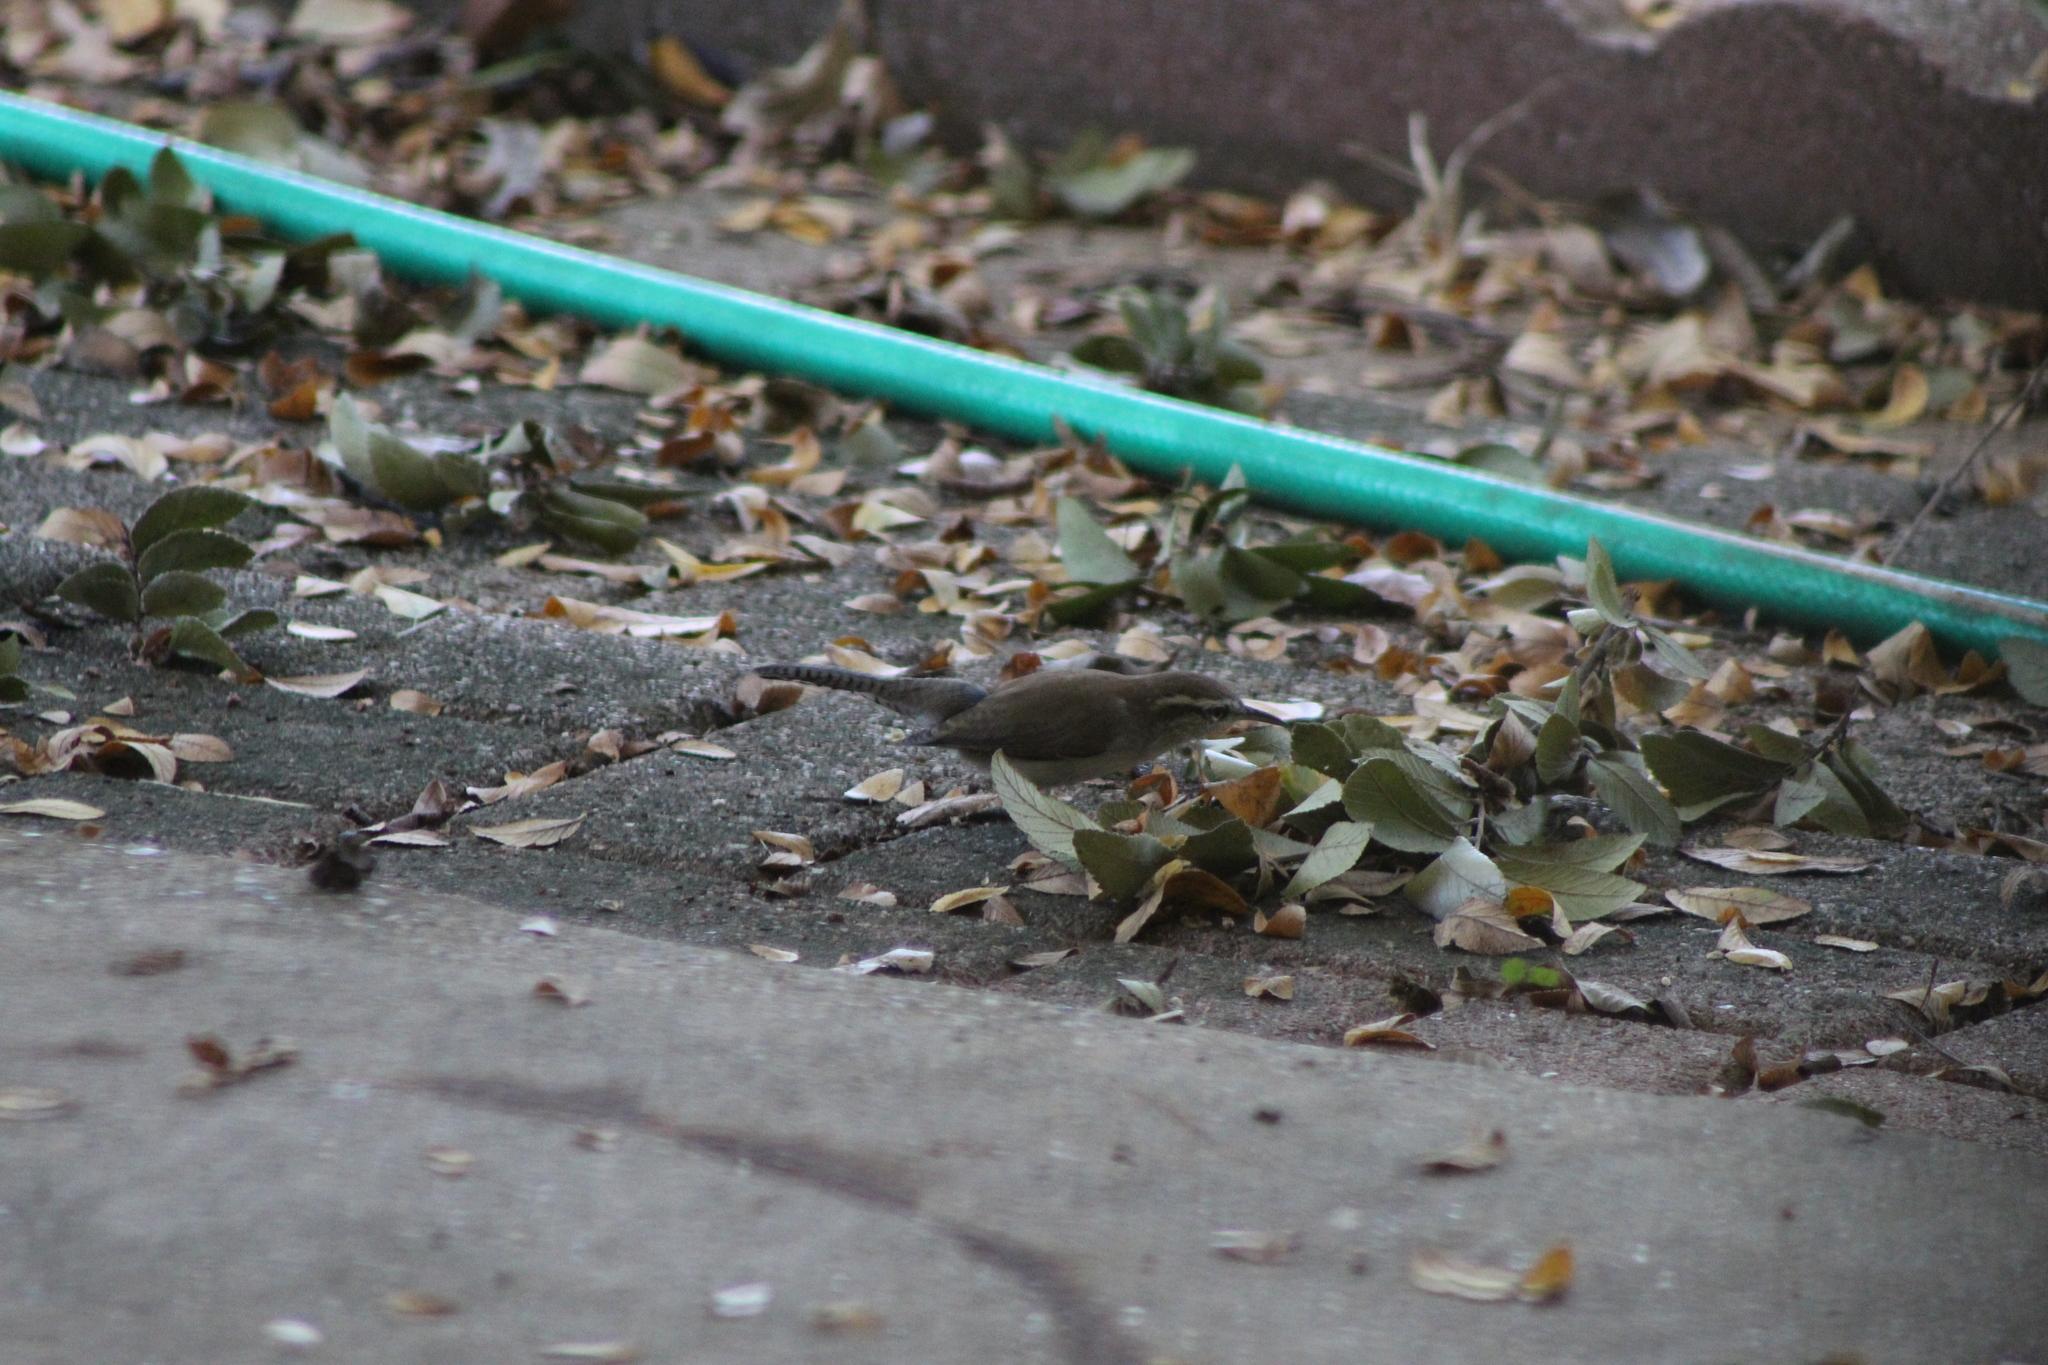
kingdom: Animalia
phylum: Chordata
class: Aves
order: Passeriformes
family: Troglodytidae
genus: Thryomanes
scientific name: Thryomanes bewickii
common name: Bewick's wren
